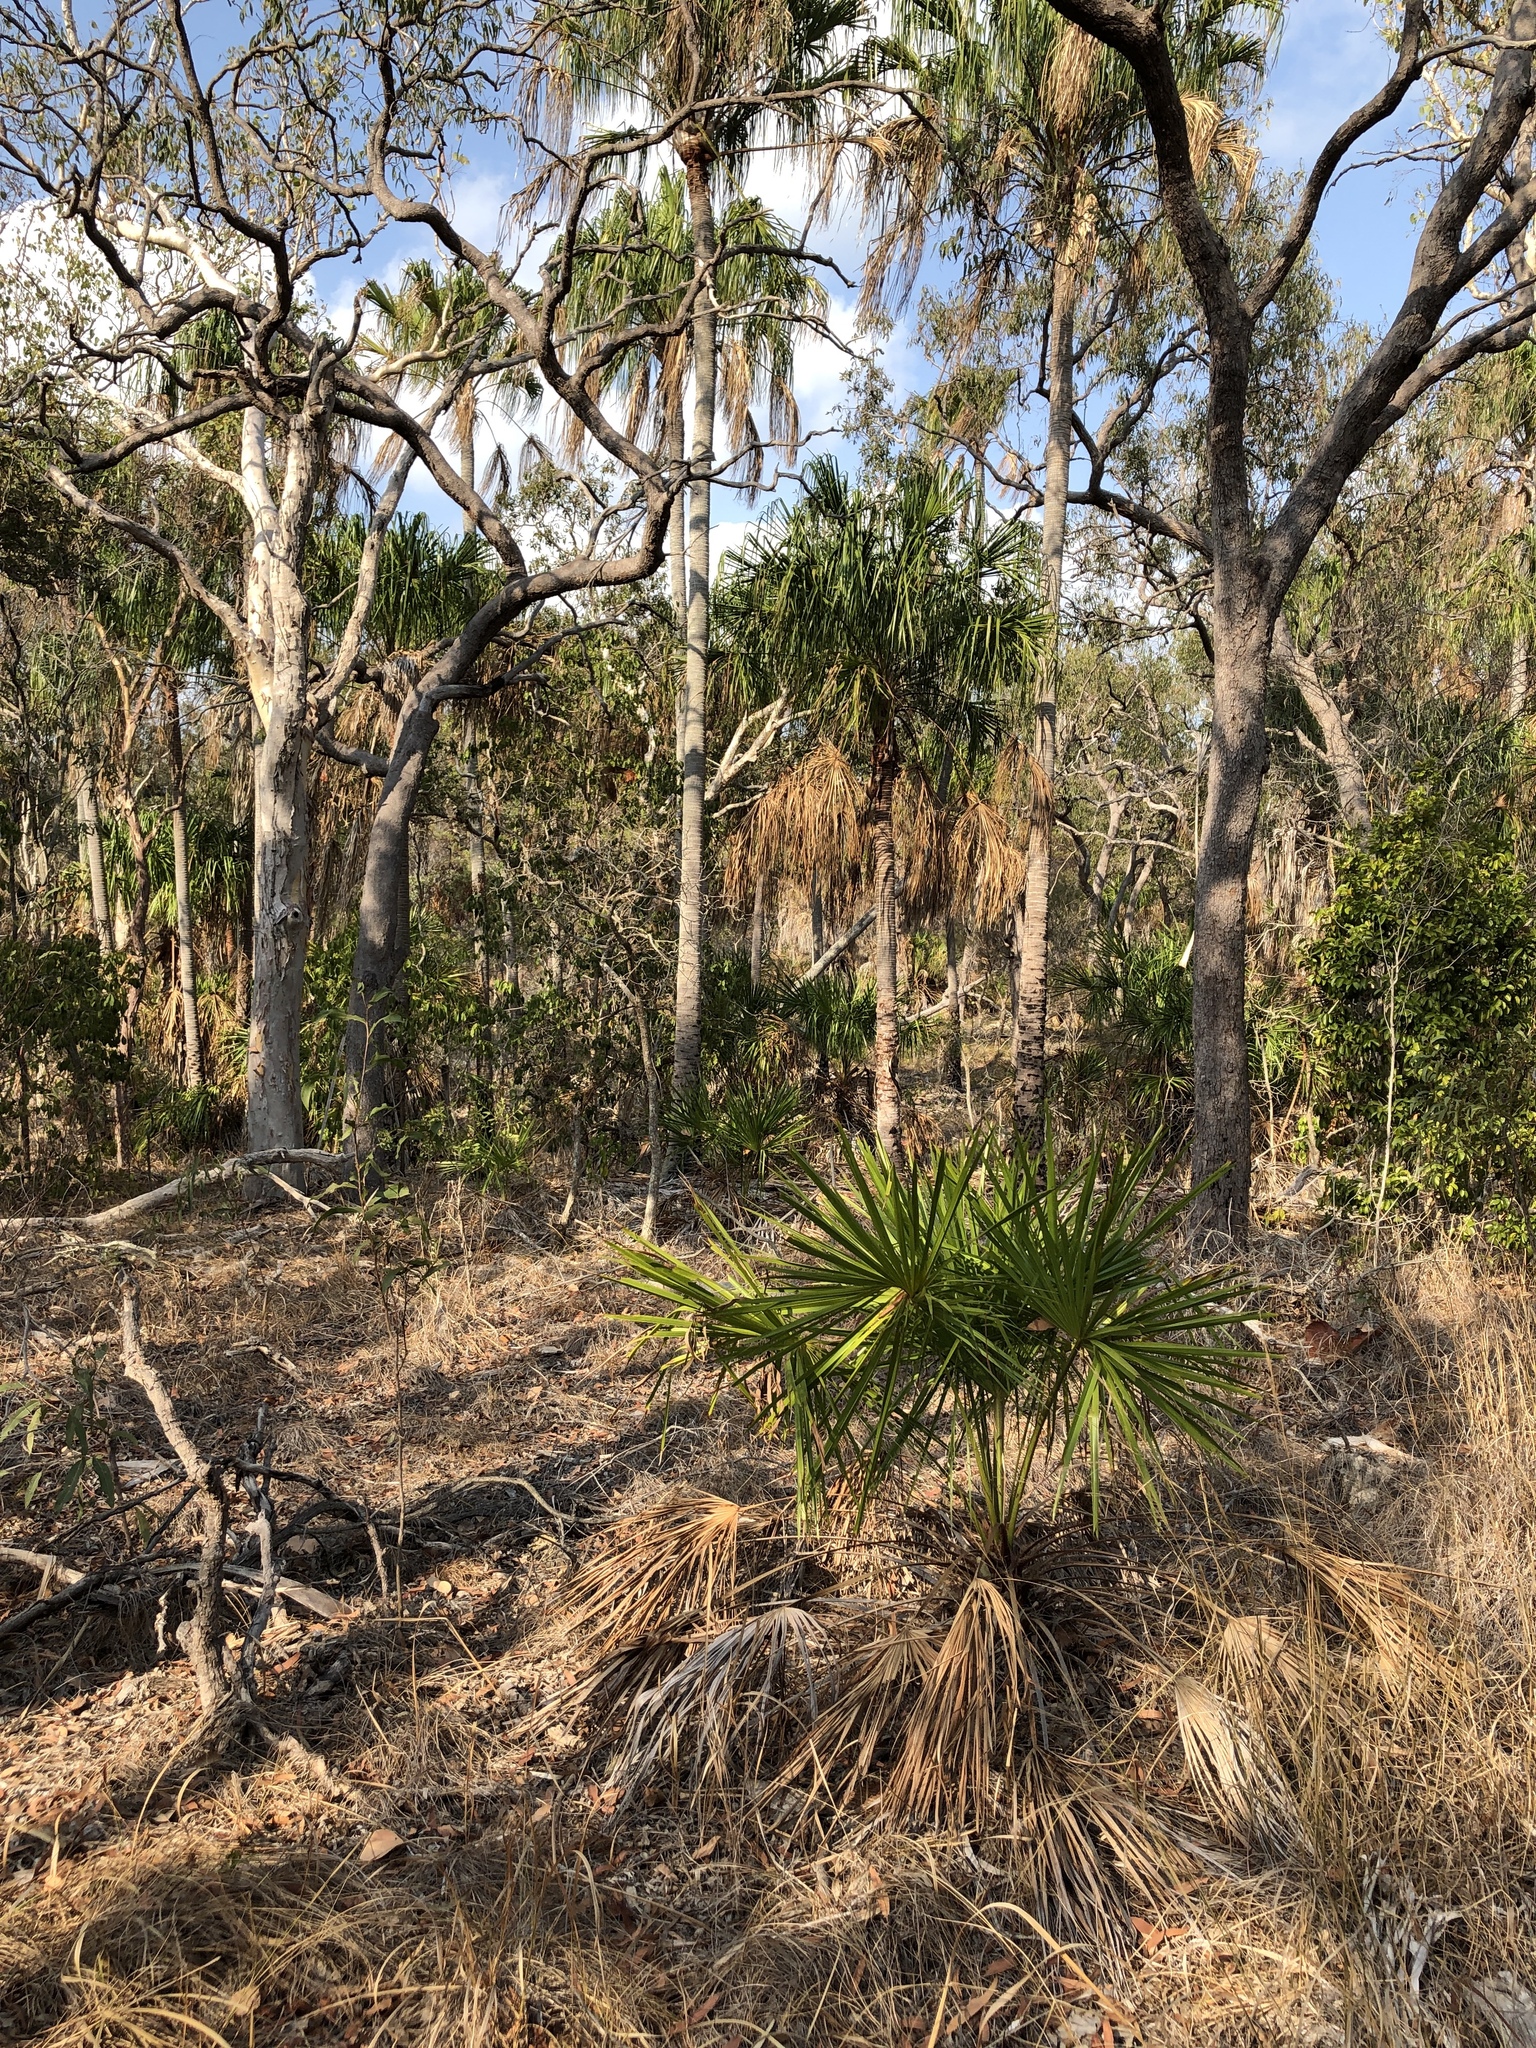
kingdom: Plantae
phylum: Tracheophyta
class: Liliopsida
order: Arecales
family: Arecaceae
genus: Livistona
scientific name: Livistona decora
